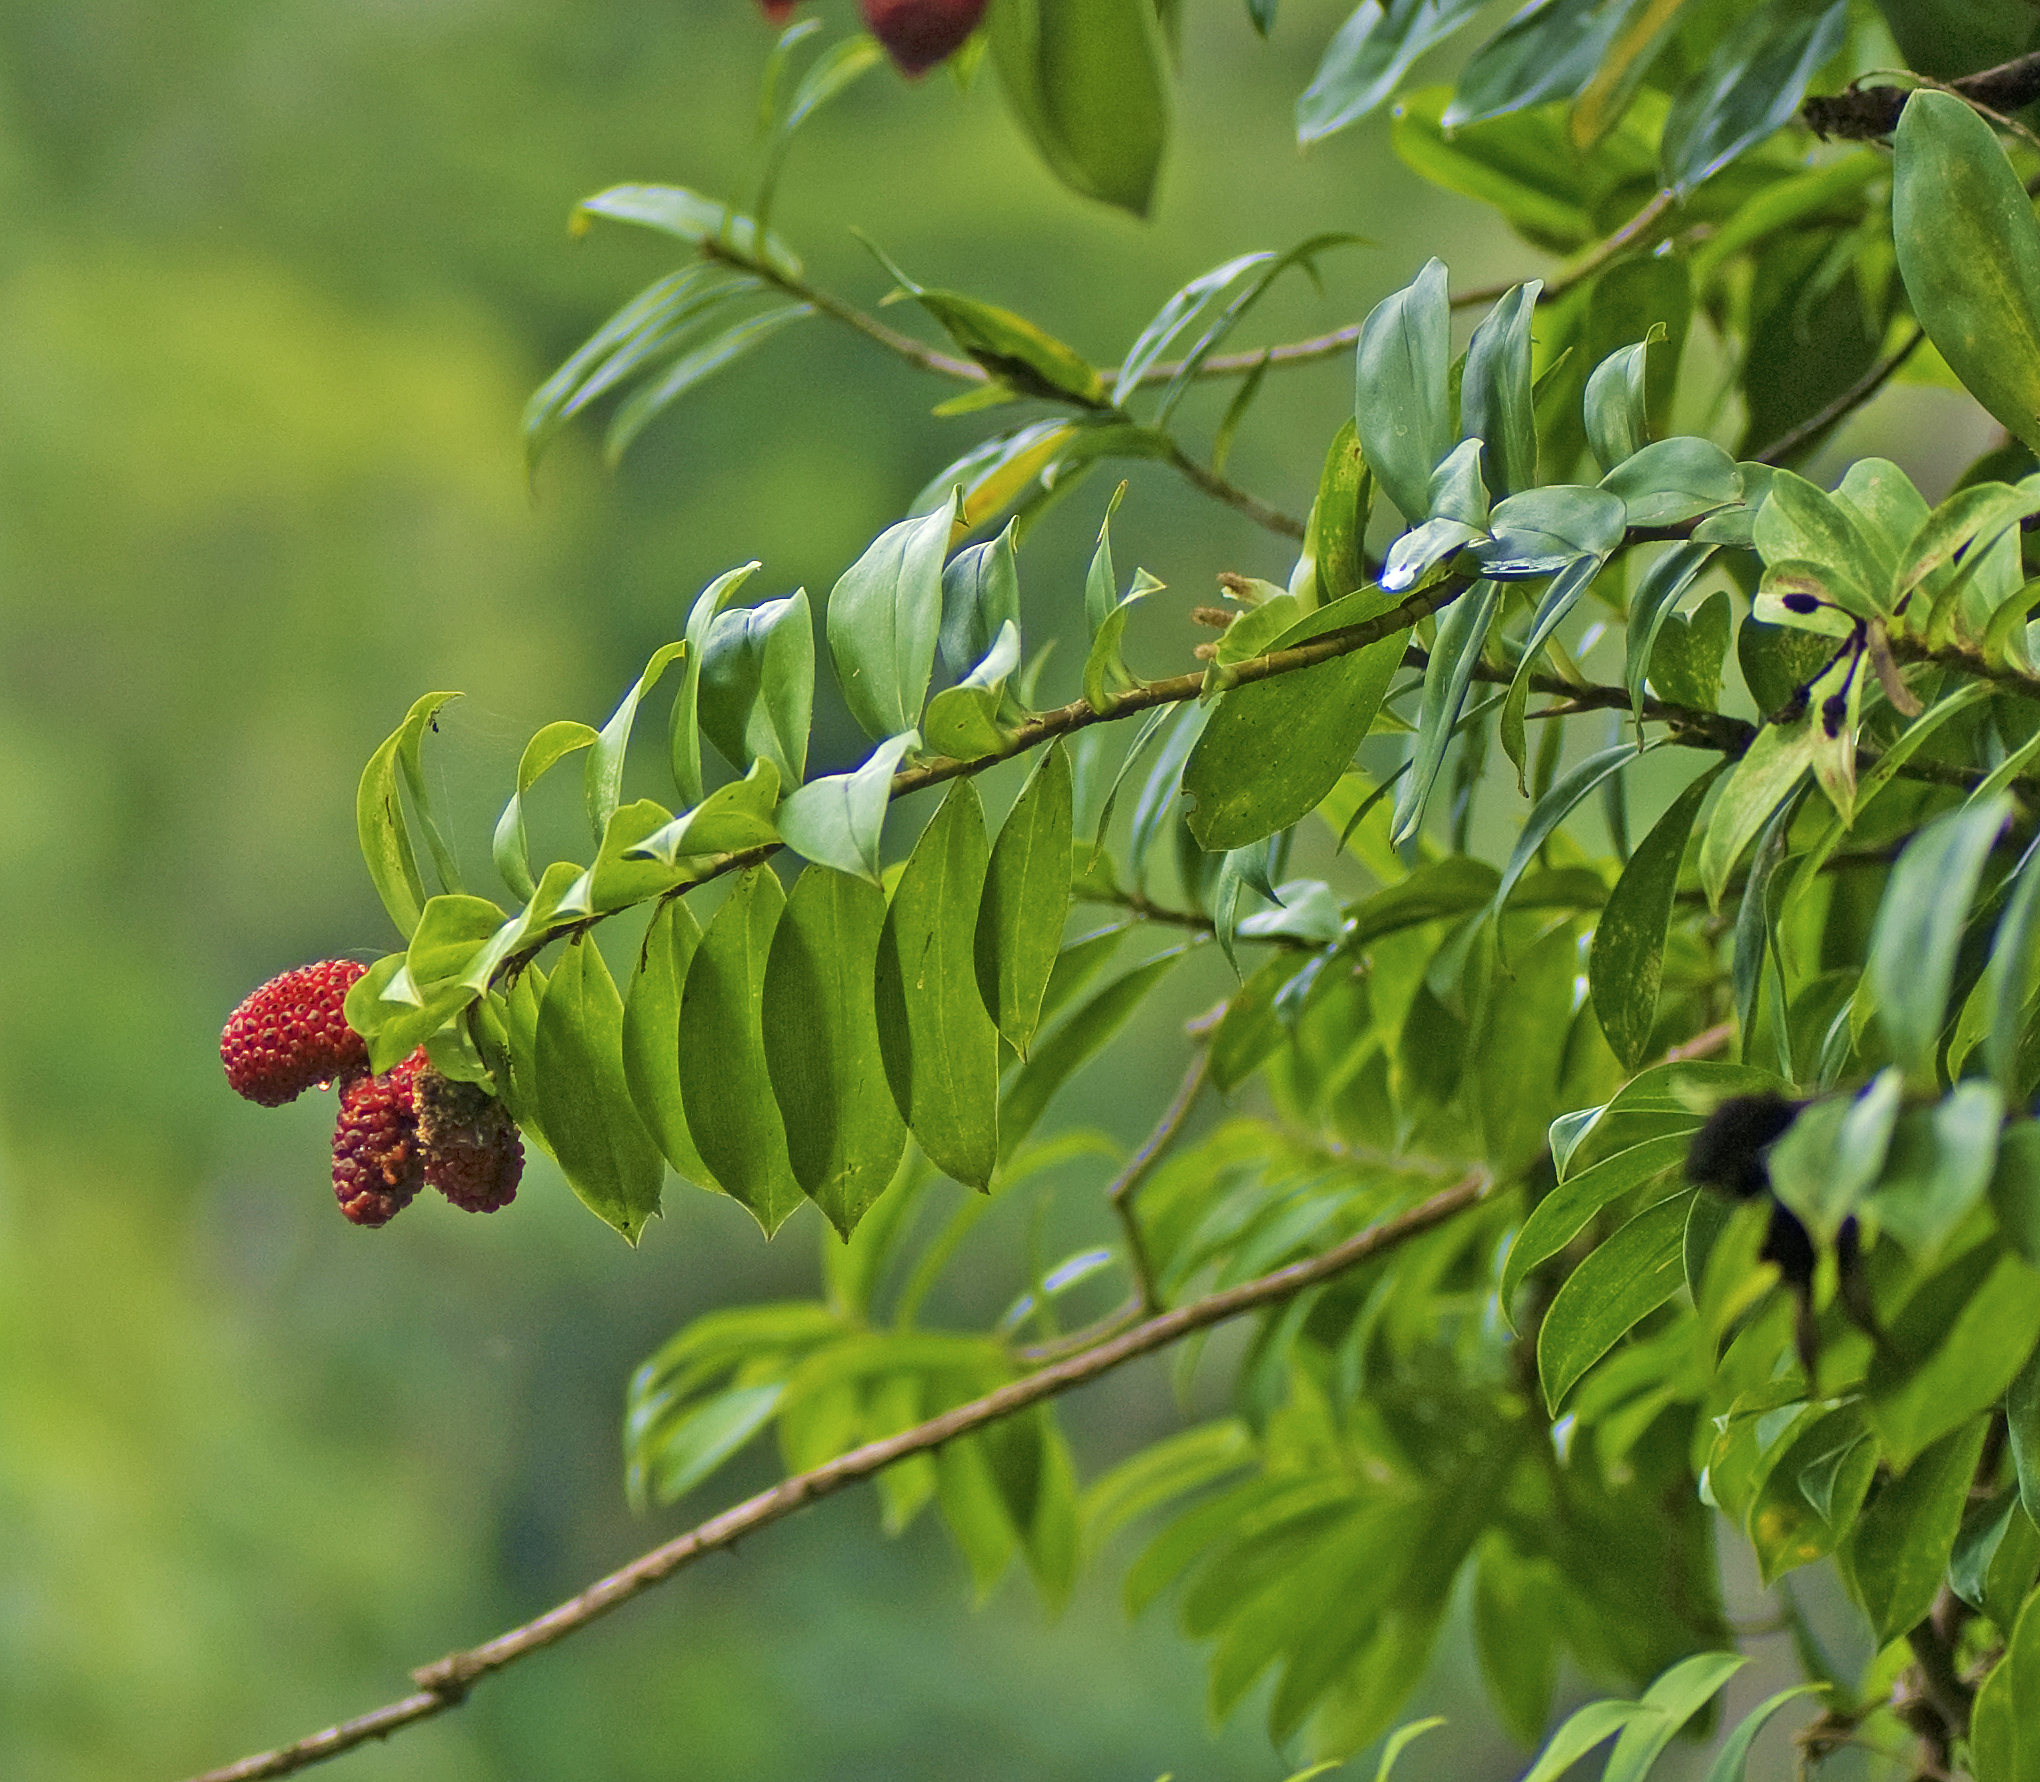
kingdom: Plantae
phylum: Tracheophyta
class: Liliopsida
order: Pandanales
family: Pandanaceae
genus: Freycinetia
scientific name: Freycinetia scandens
